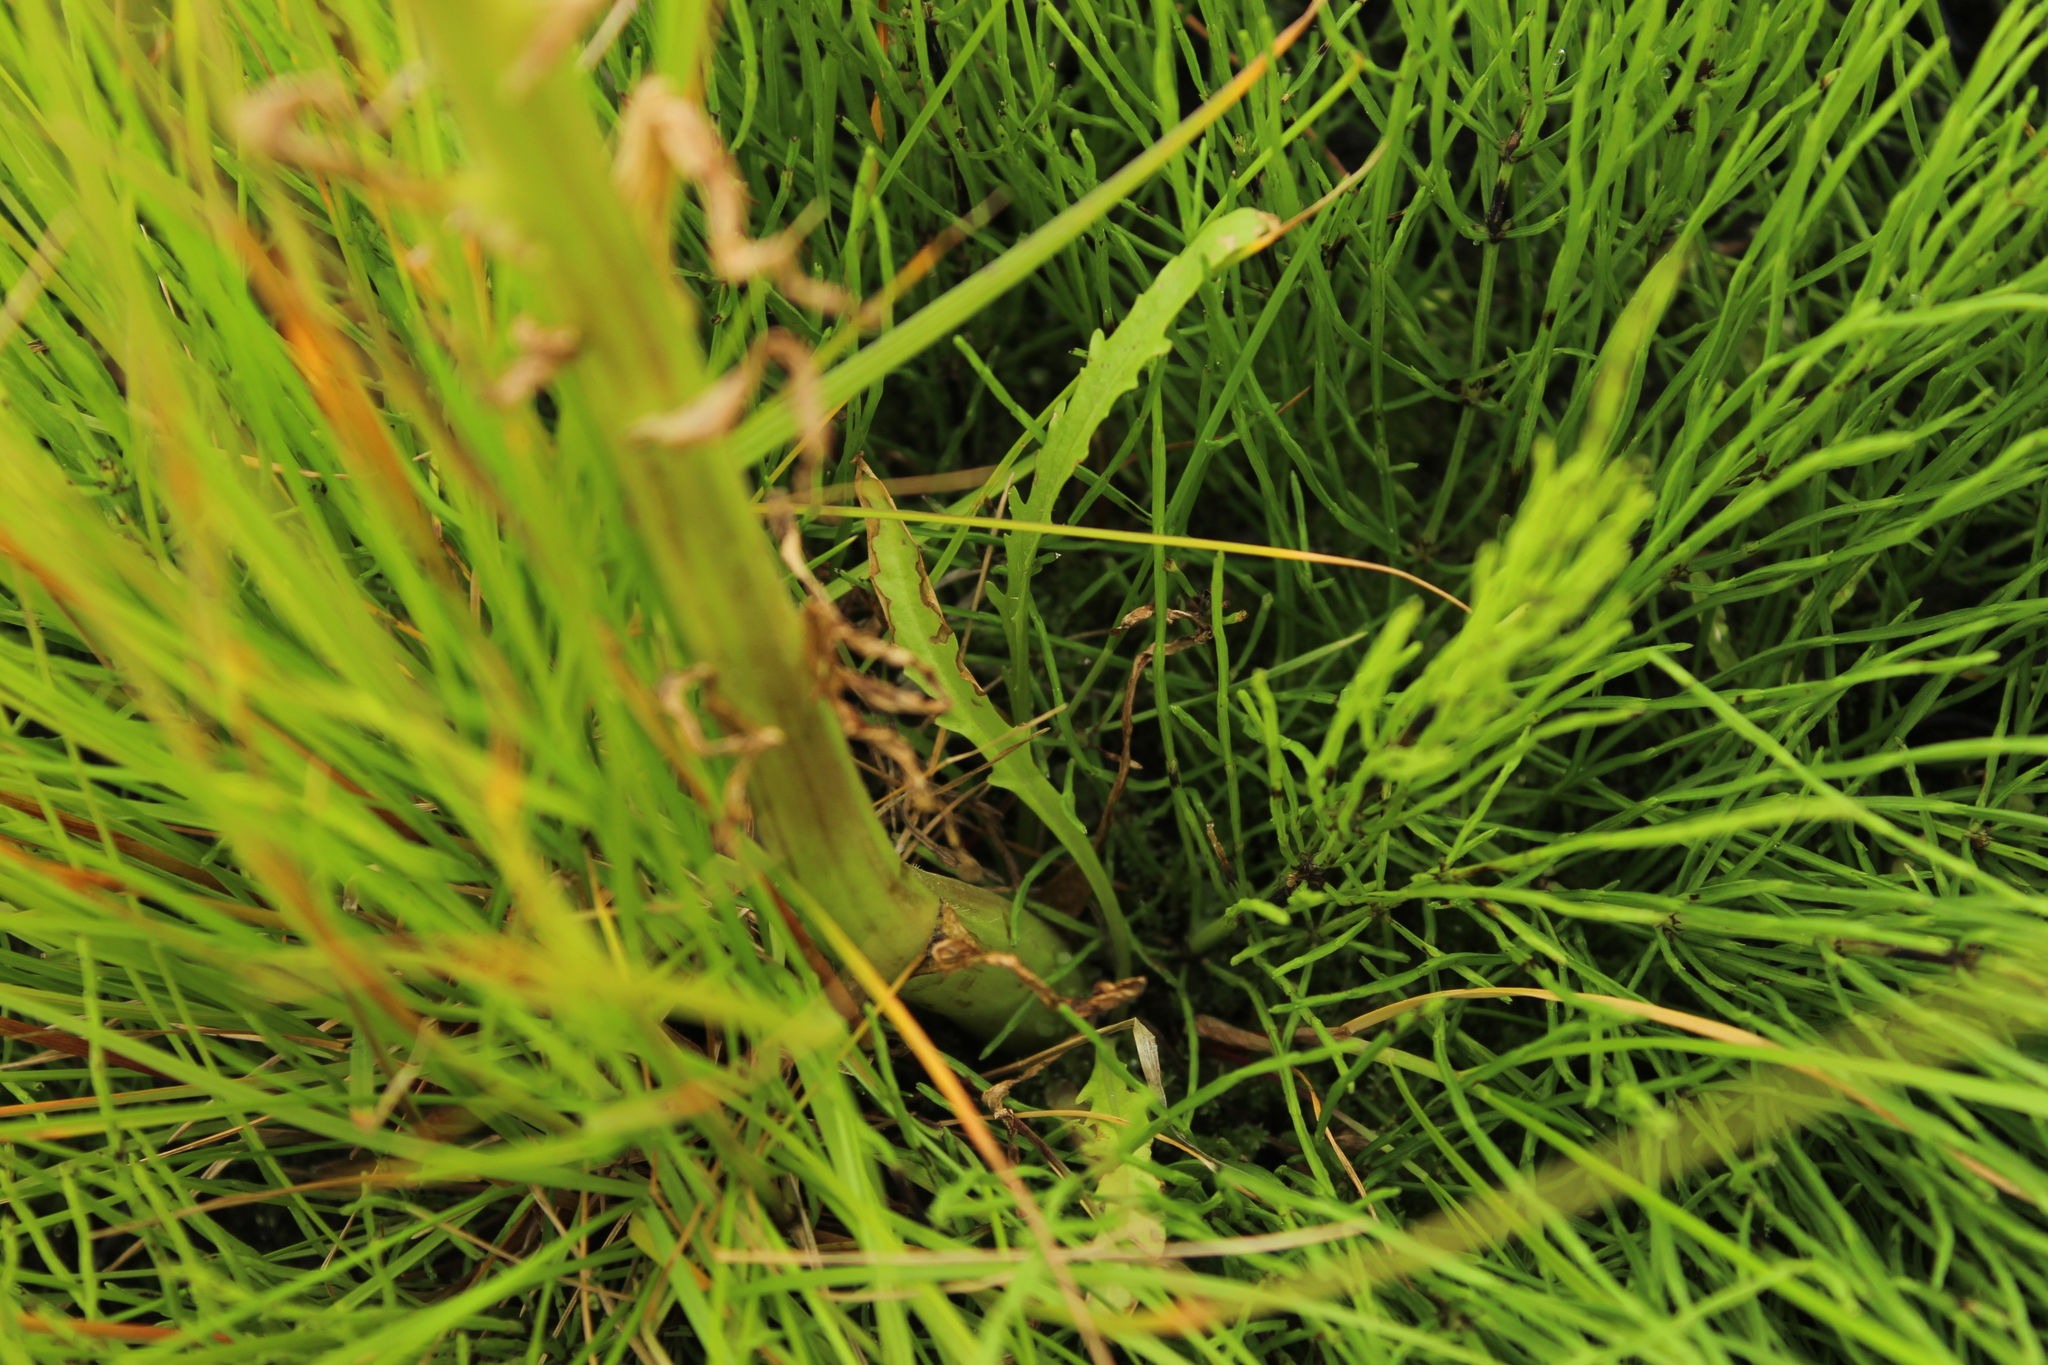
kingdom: Plantae
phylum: Tracheophyta
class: Magnoliopsida
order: Asterales
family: Asteraceae
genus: Tephroseris
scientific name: Tephroseris palustris
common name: Marsh fleawort
